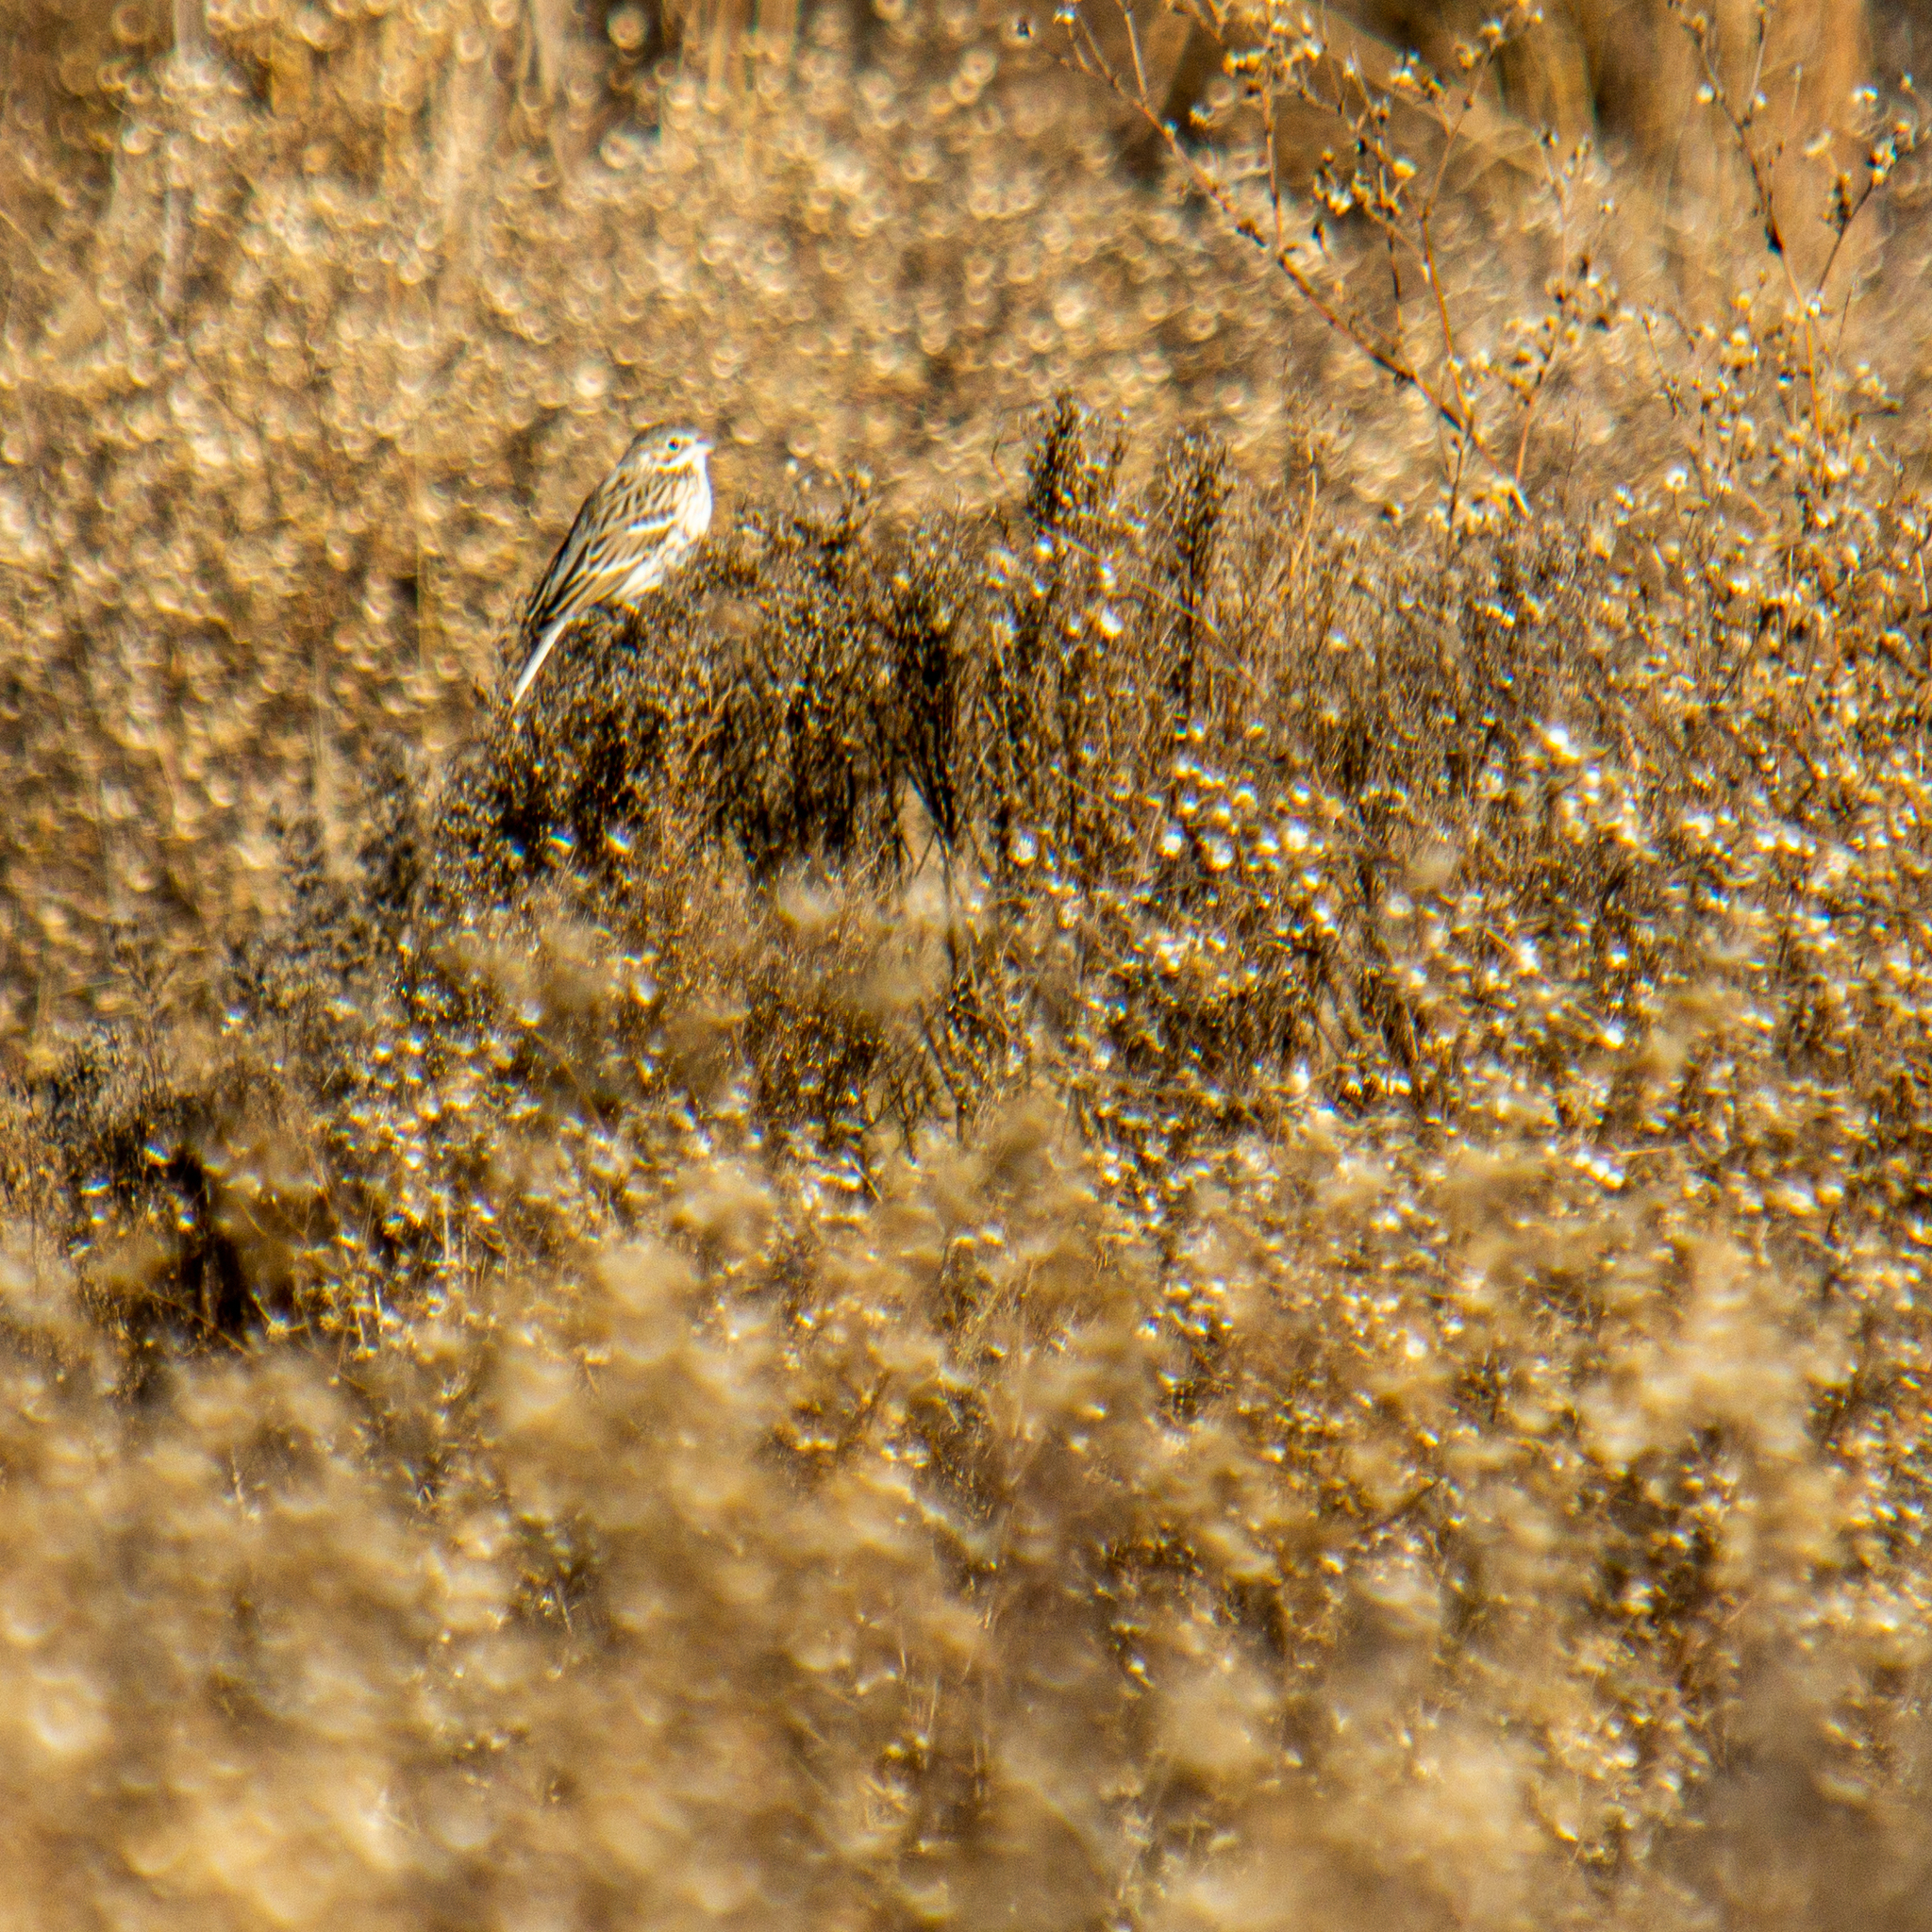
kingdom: Animalia
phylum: Chordata
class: Aves
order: Passeriformes
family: Passerellidae
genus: Pooecetes
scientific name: Pooecetes gramineus
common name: Vesper sparrow
